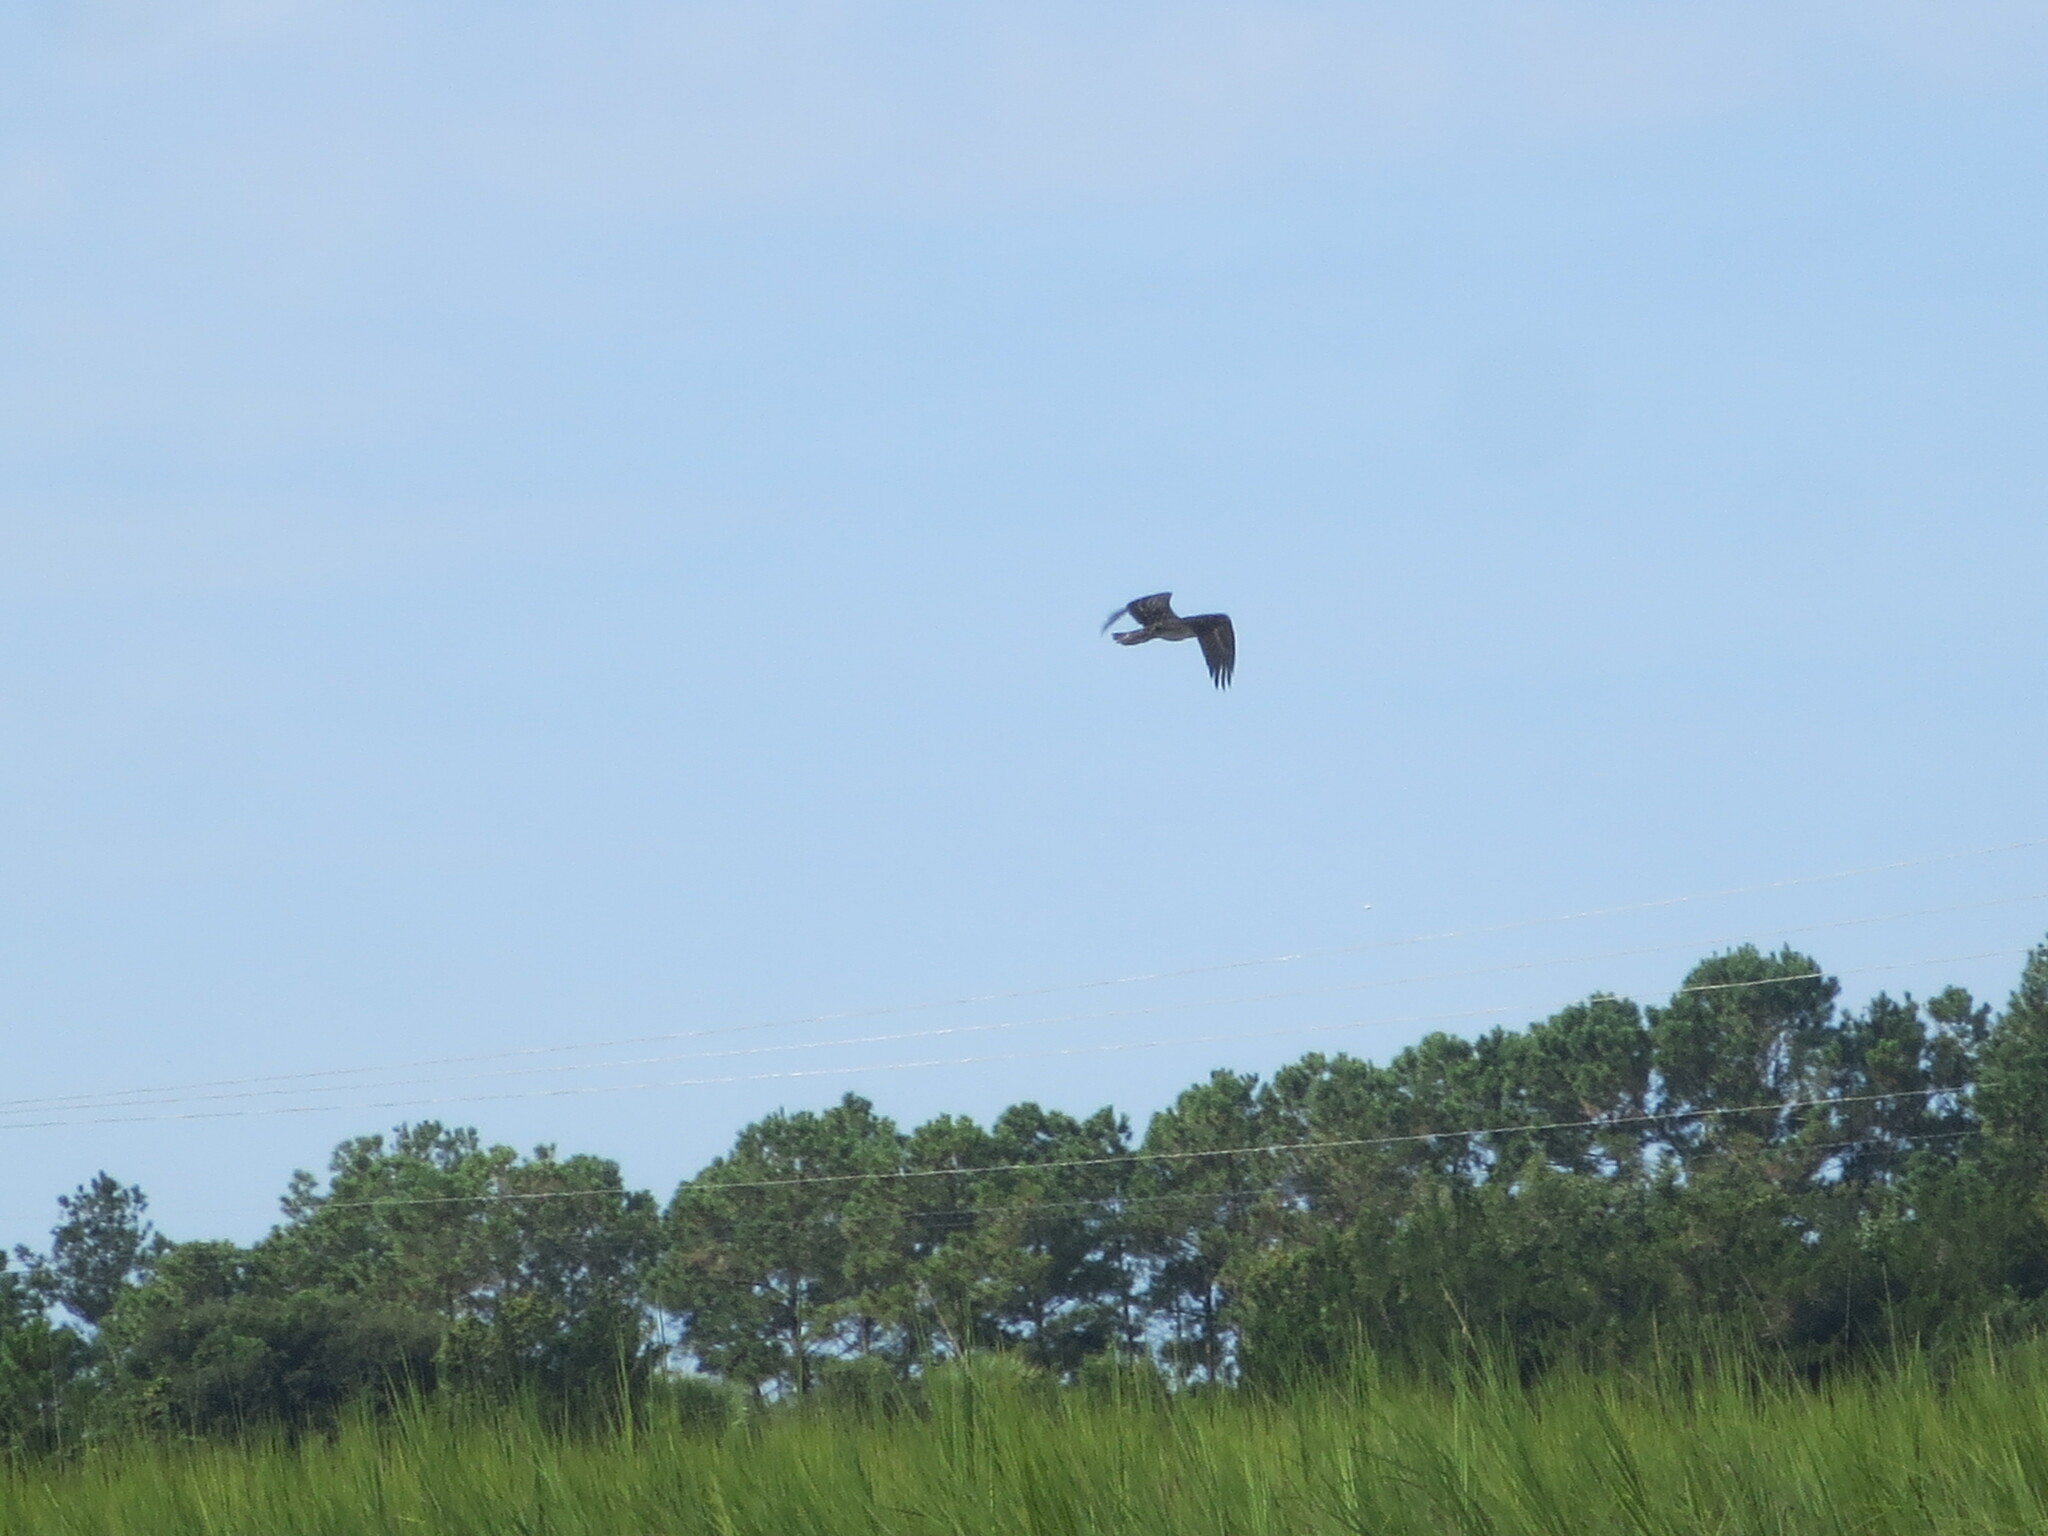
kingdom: Animalia
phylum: Chordata
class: Aves
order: Accipitriformes
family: Pandionidae
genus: Pandion
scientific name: Pandion haliaetus
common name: Osprey
